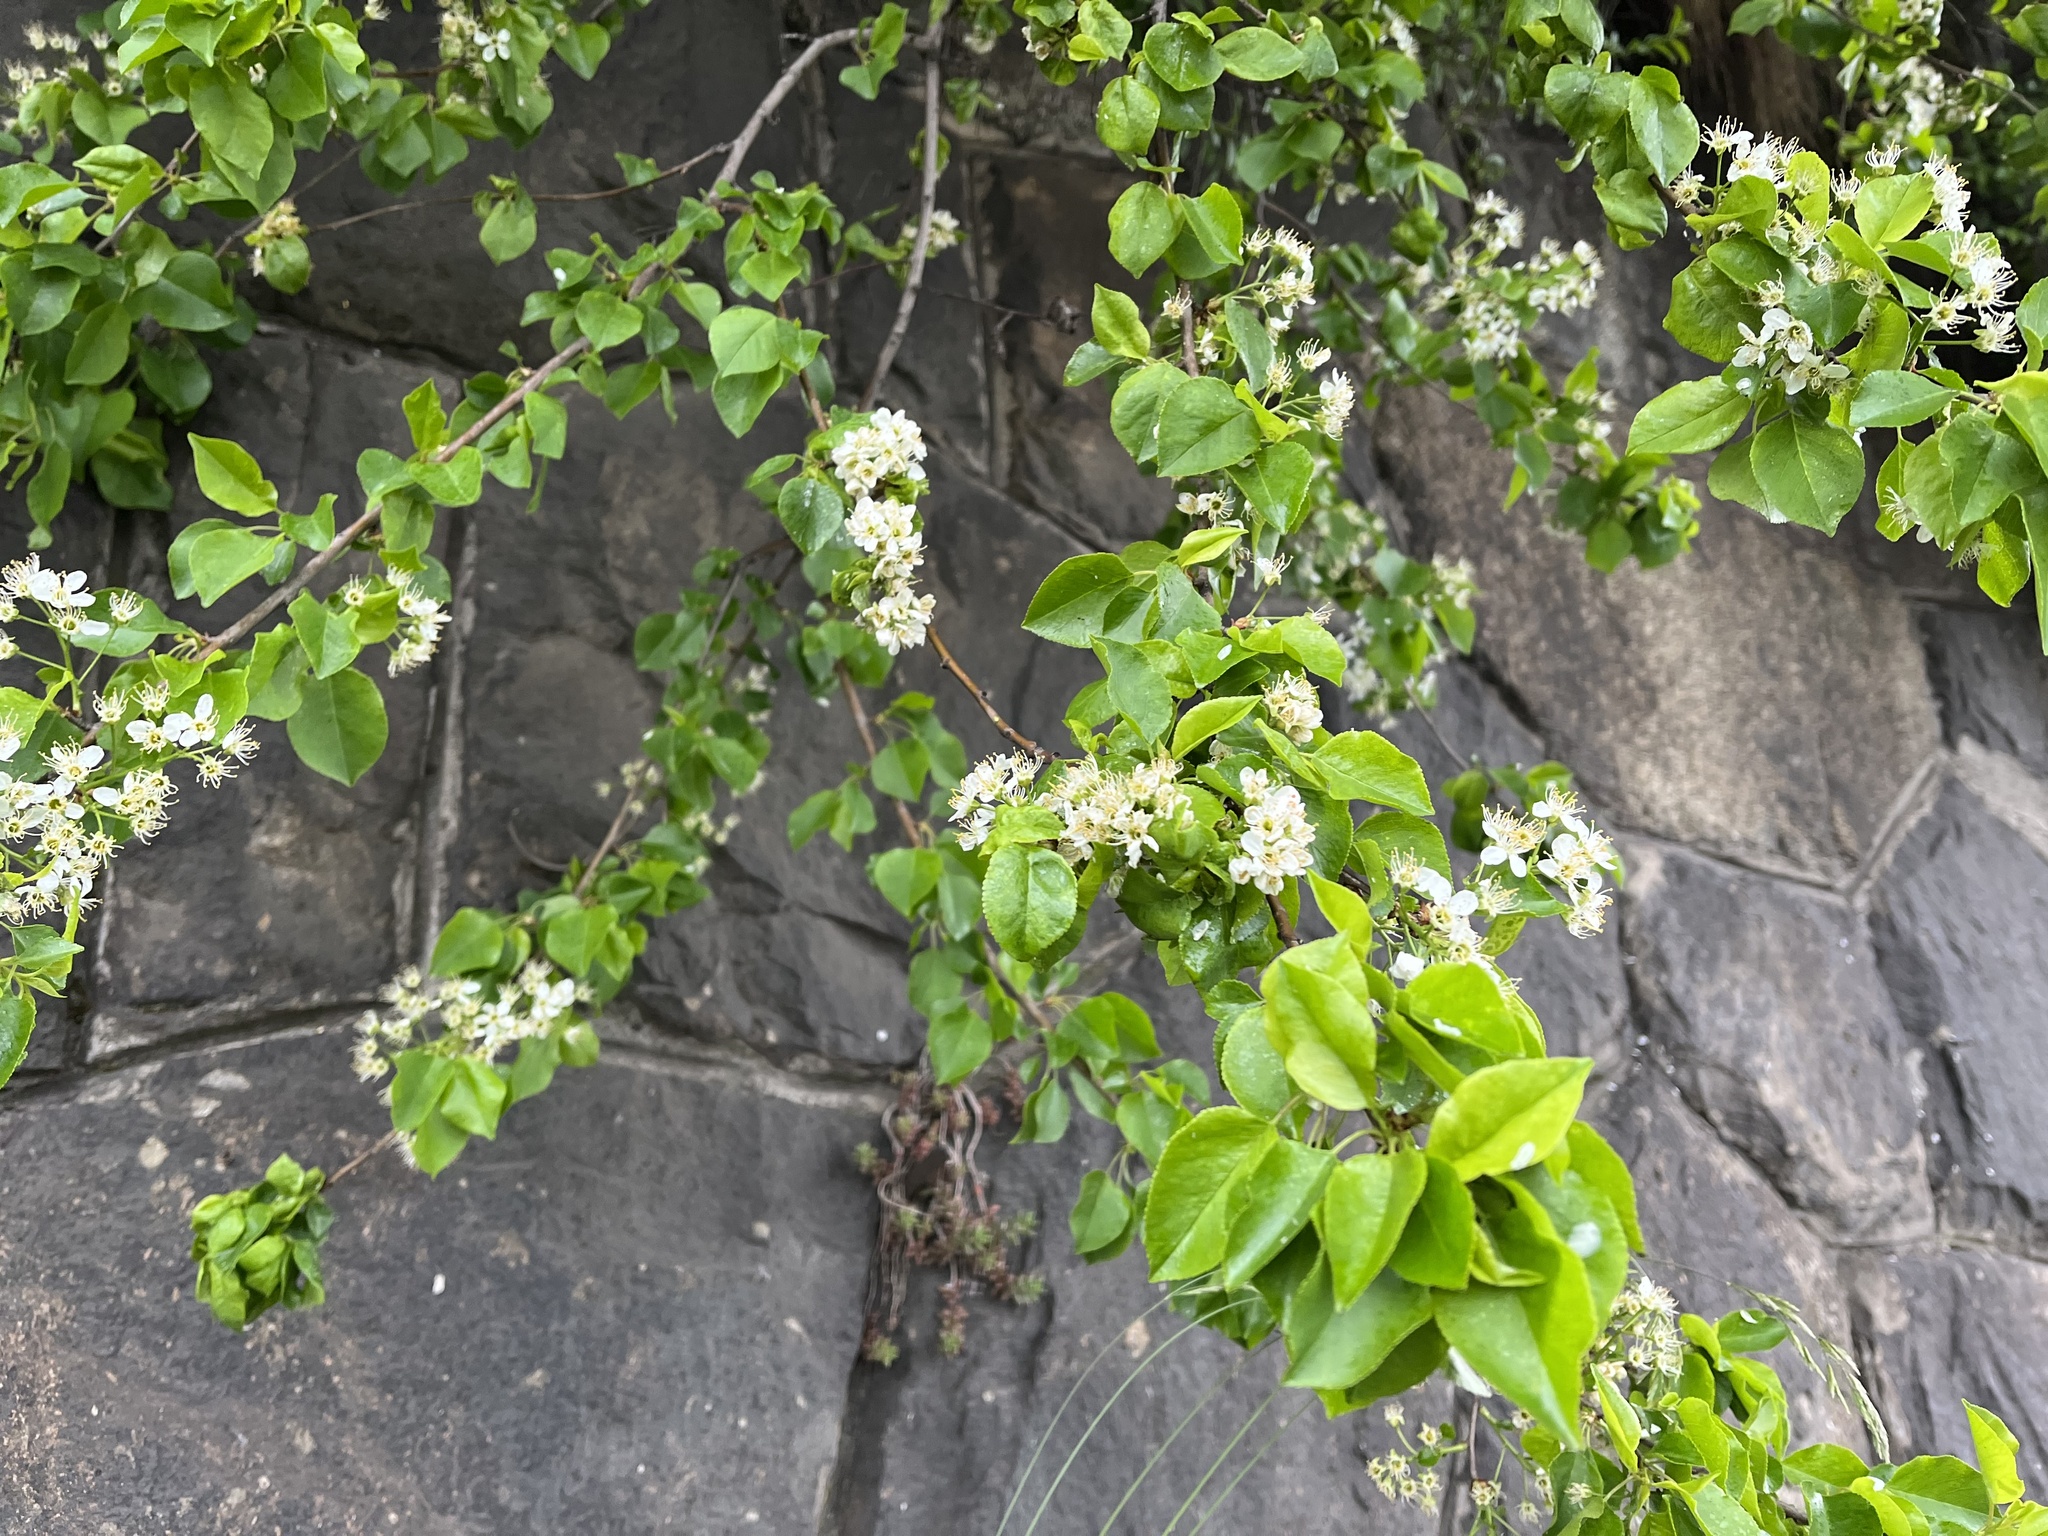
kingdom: Plantae
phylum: Tracheophyta
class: Magnoliopsida
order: Rosales
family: Rosaceae
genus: Prunus
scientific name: Prunus mahaleb
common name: Mahaleb cherry
